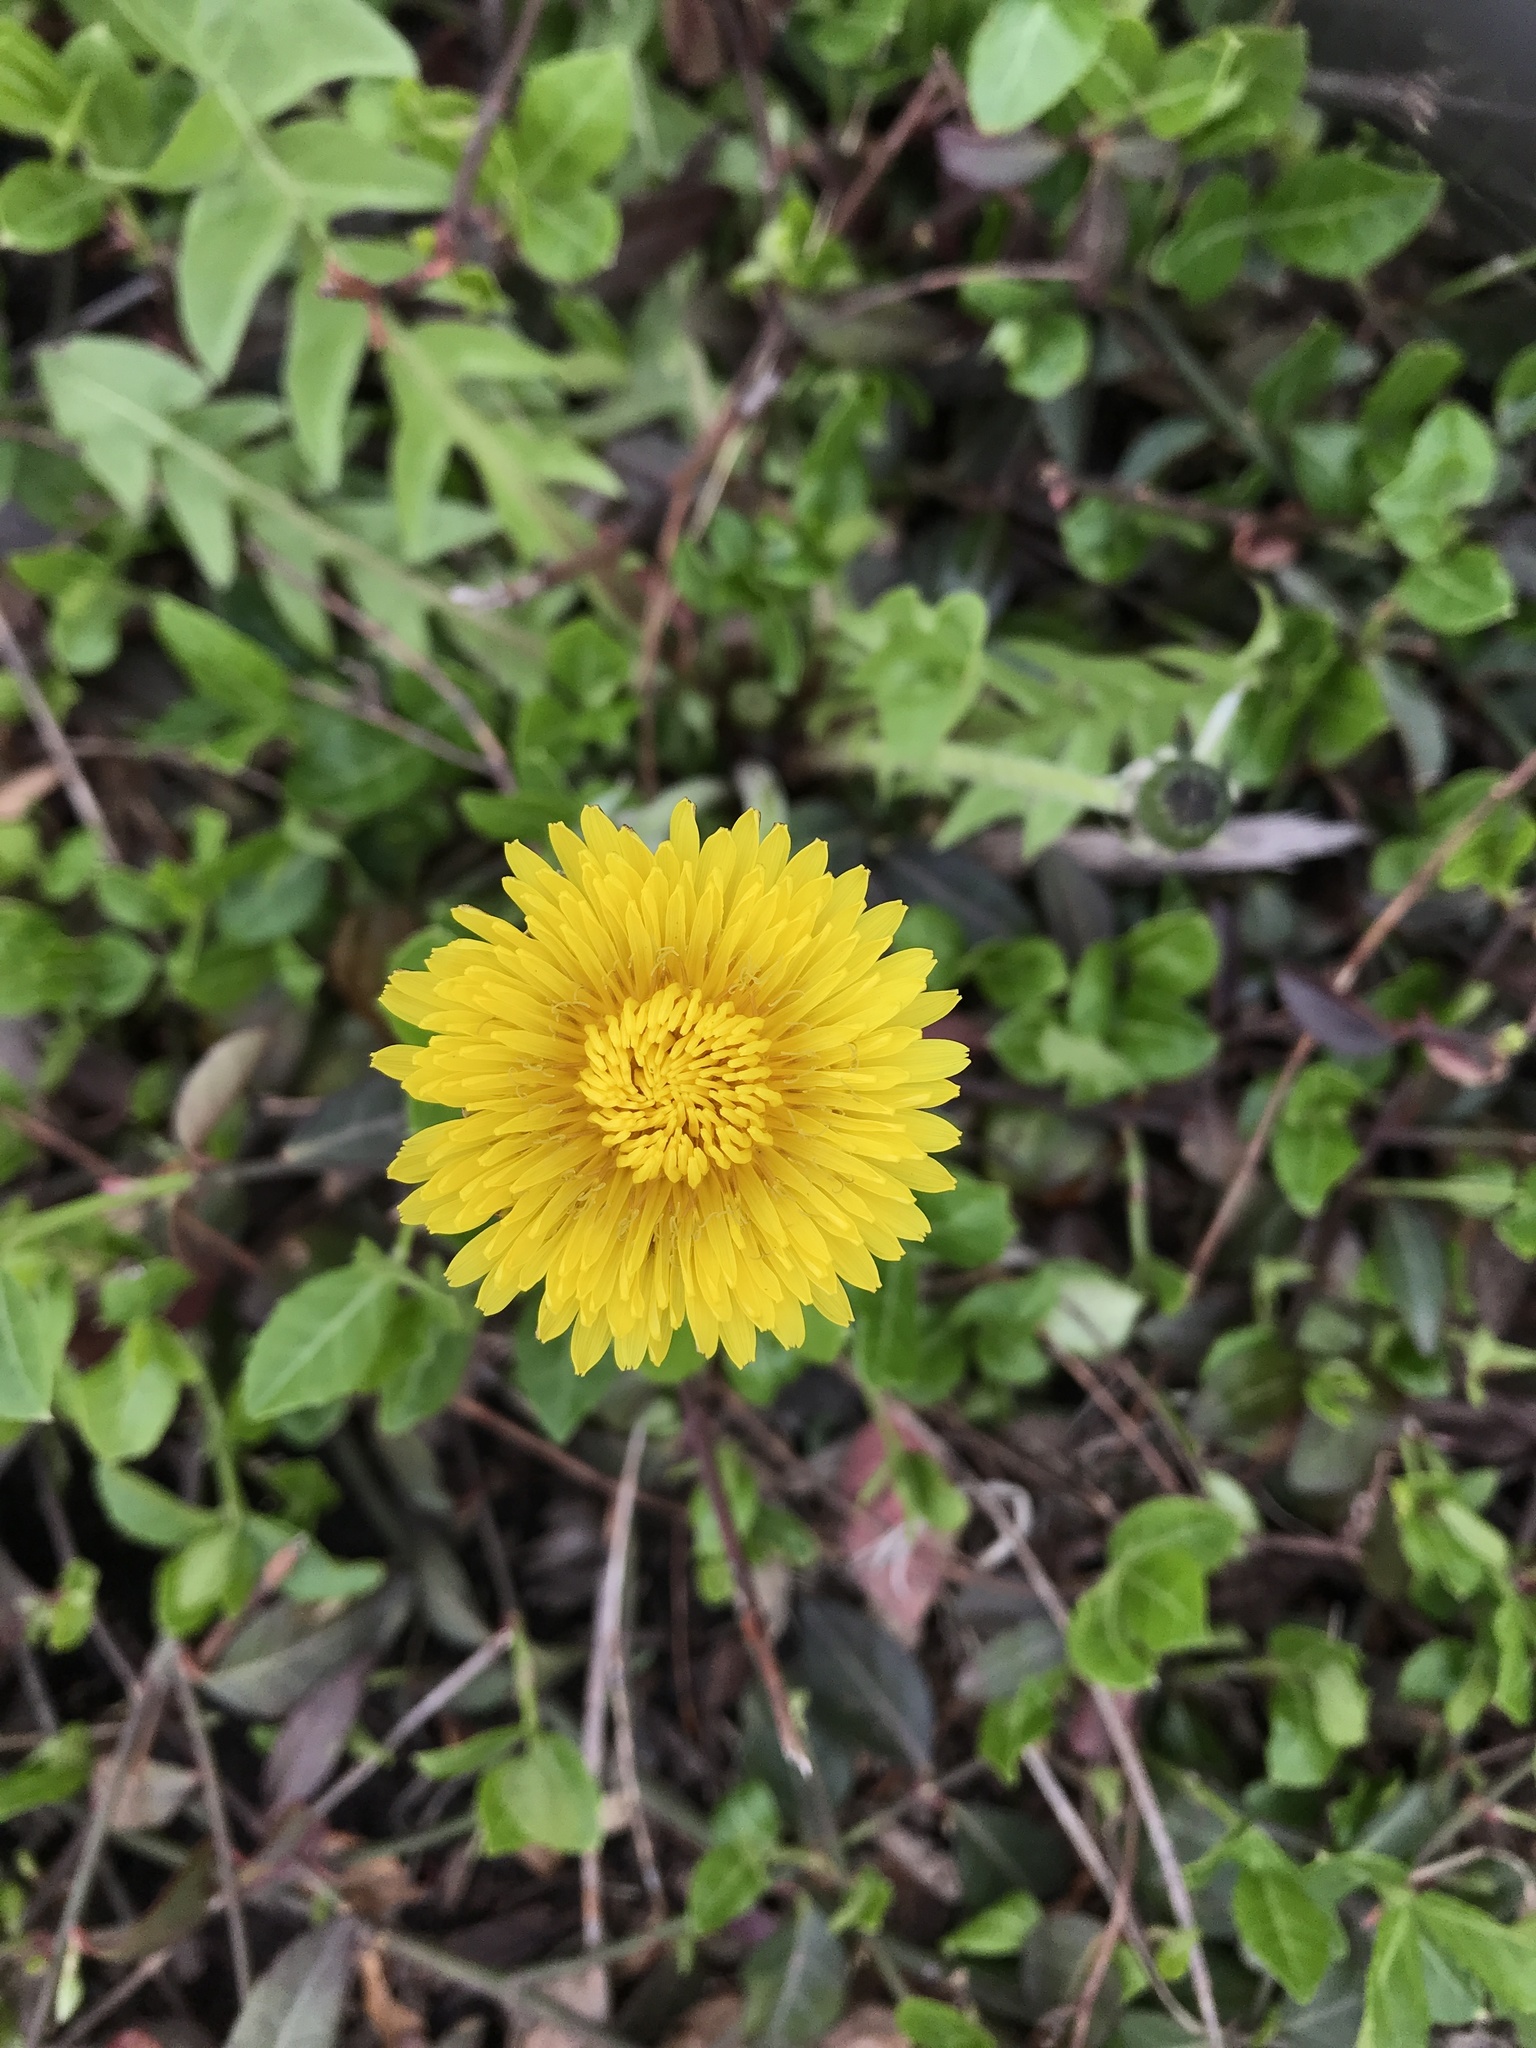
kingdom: Plantae
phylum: Tracheophyta
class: Magnoliopsida
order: Asterales
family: Asteraceae
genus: Taraxacum
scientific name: Taraxacum officinale
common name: Common dandelion
